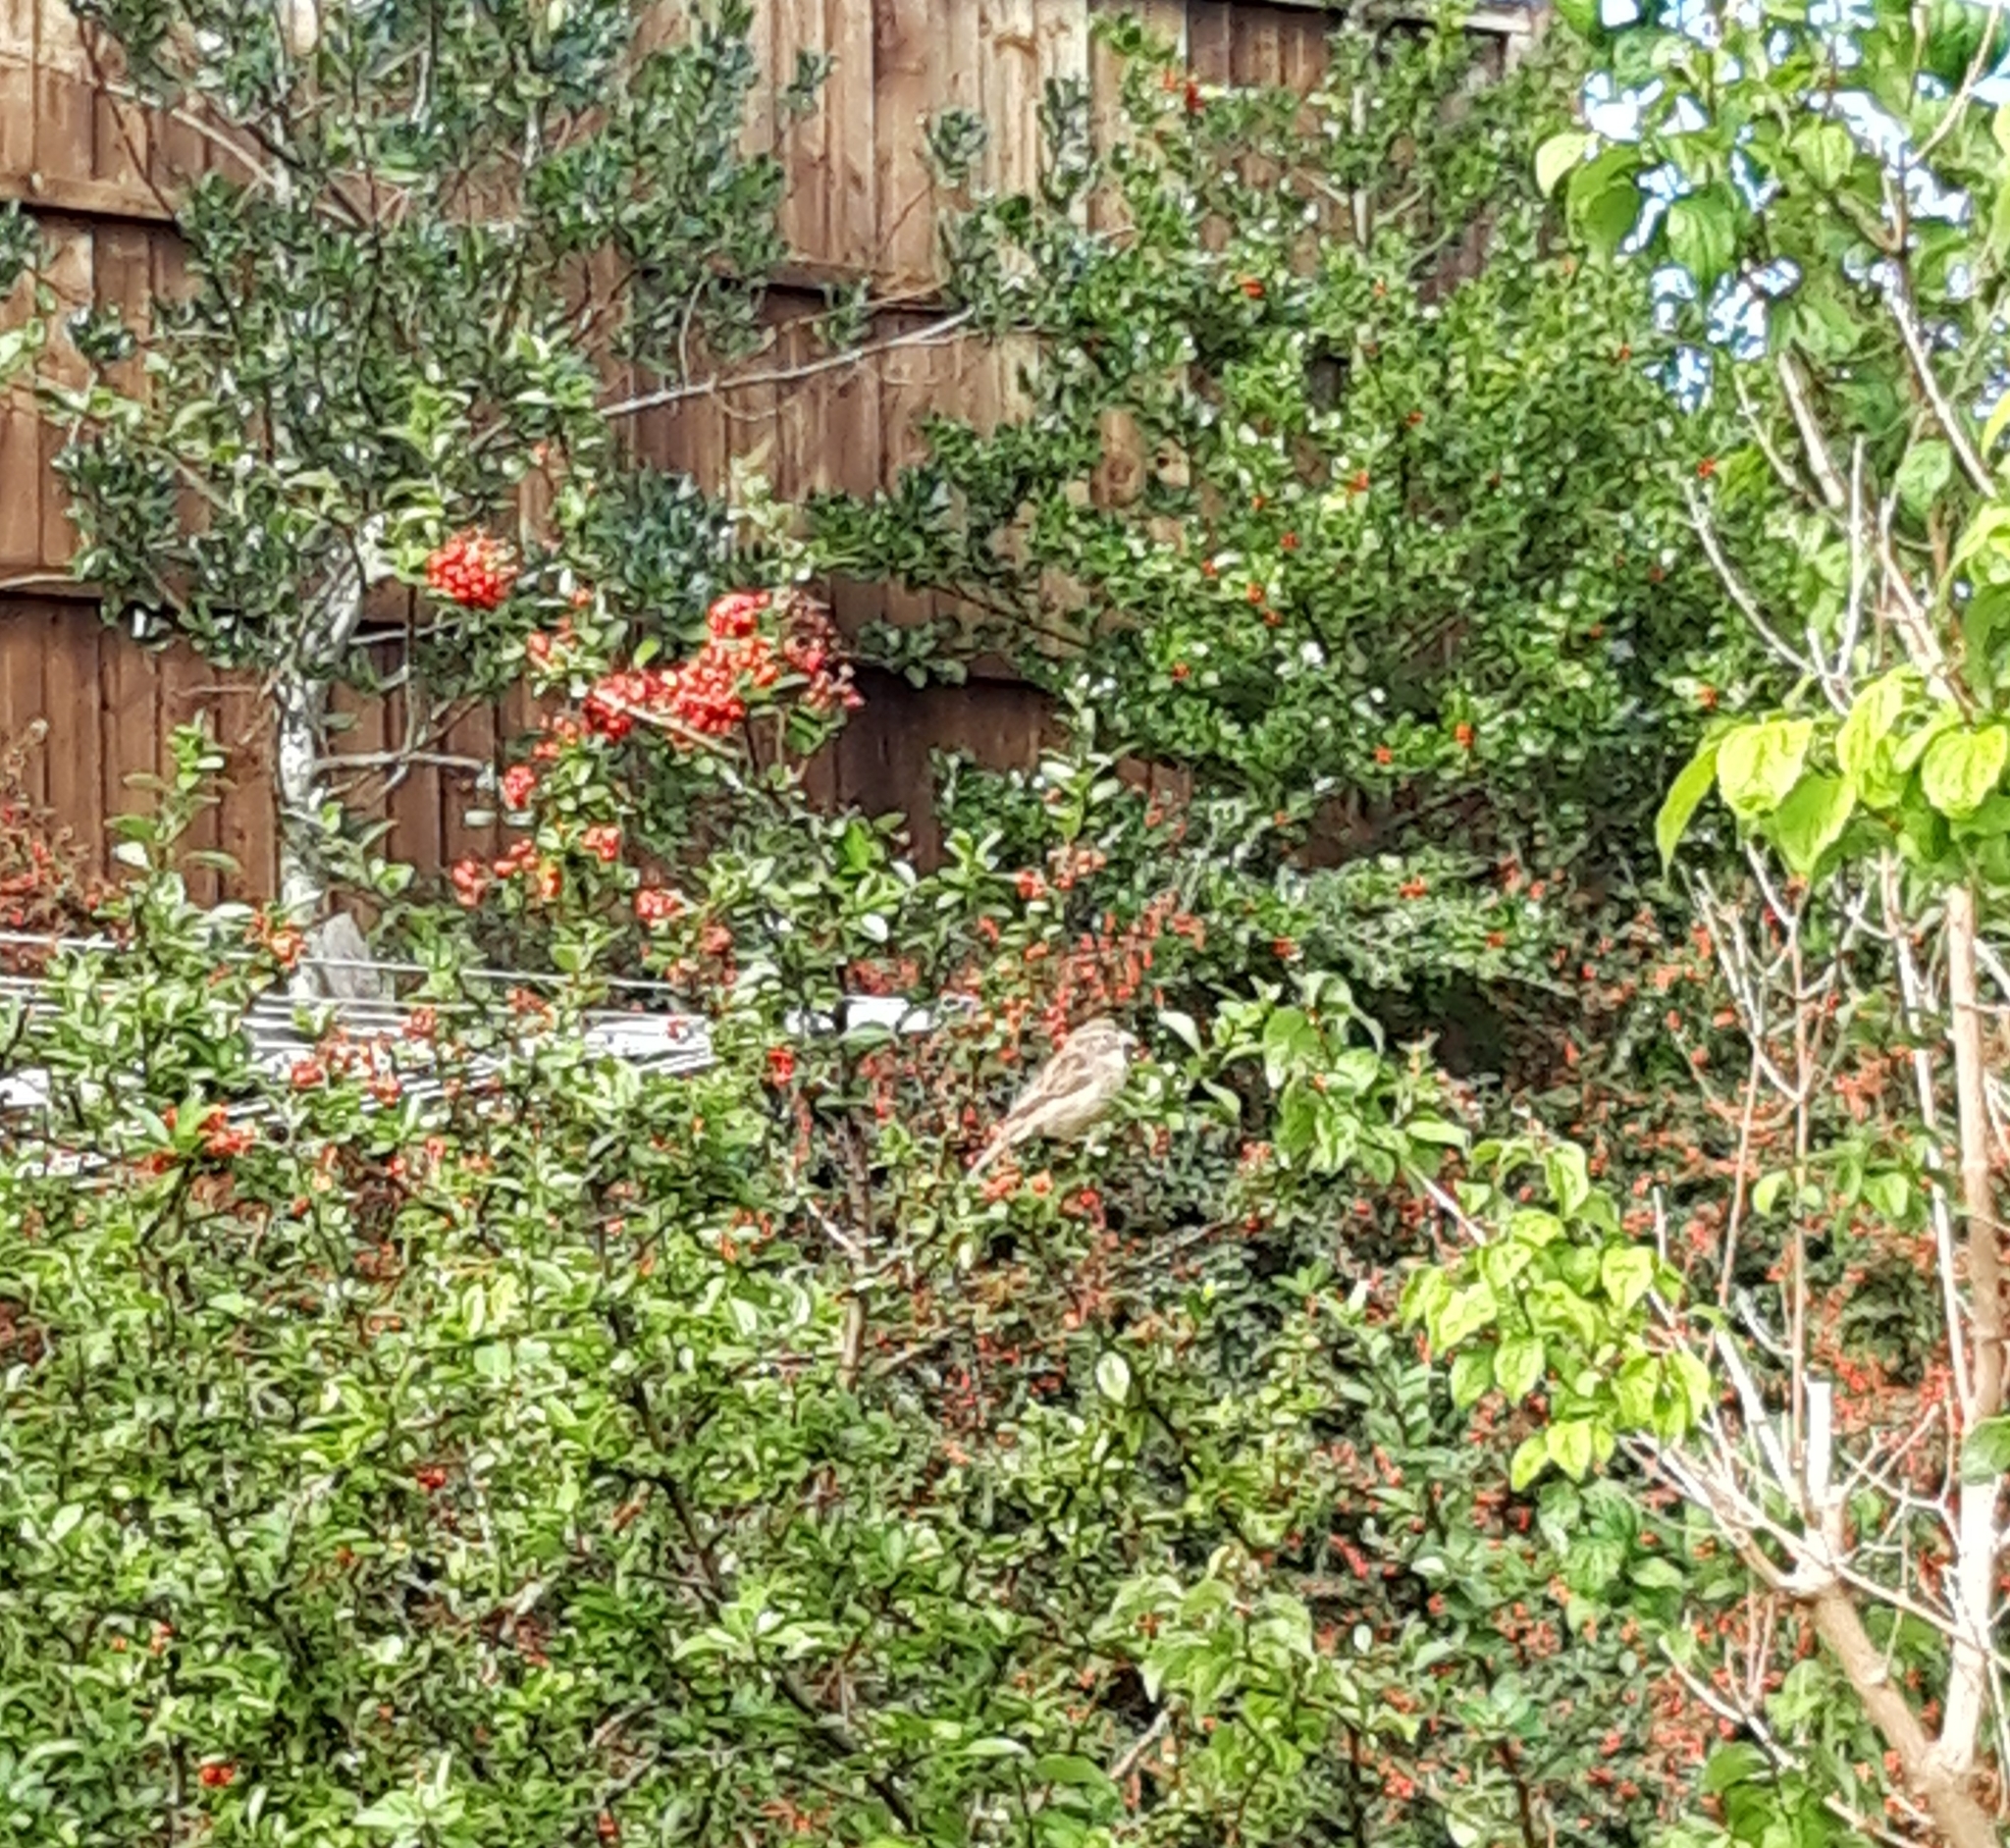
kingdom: Animalia
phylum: Chordata
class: Aves
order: Passeriformes
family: Passeridae
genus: Passer
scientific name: Passer domesticus
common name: House sparrow
